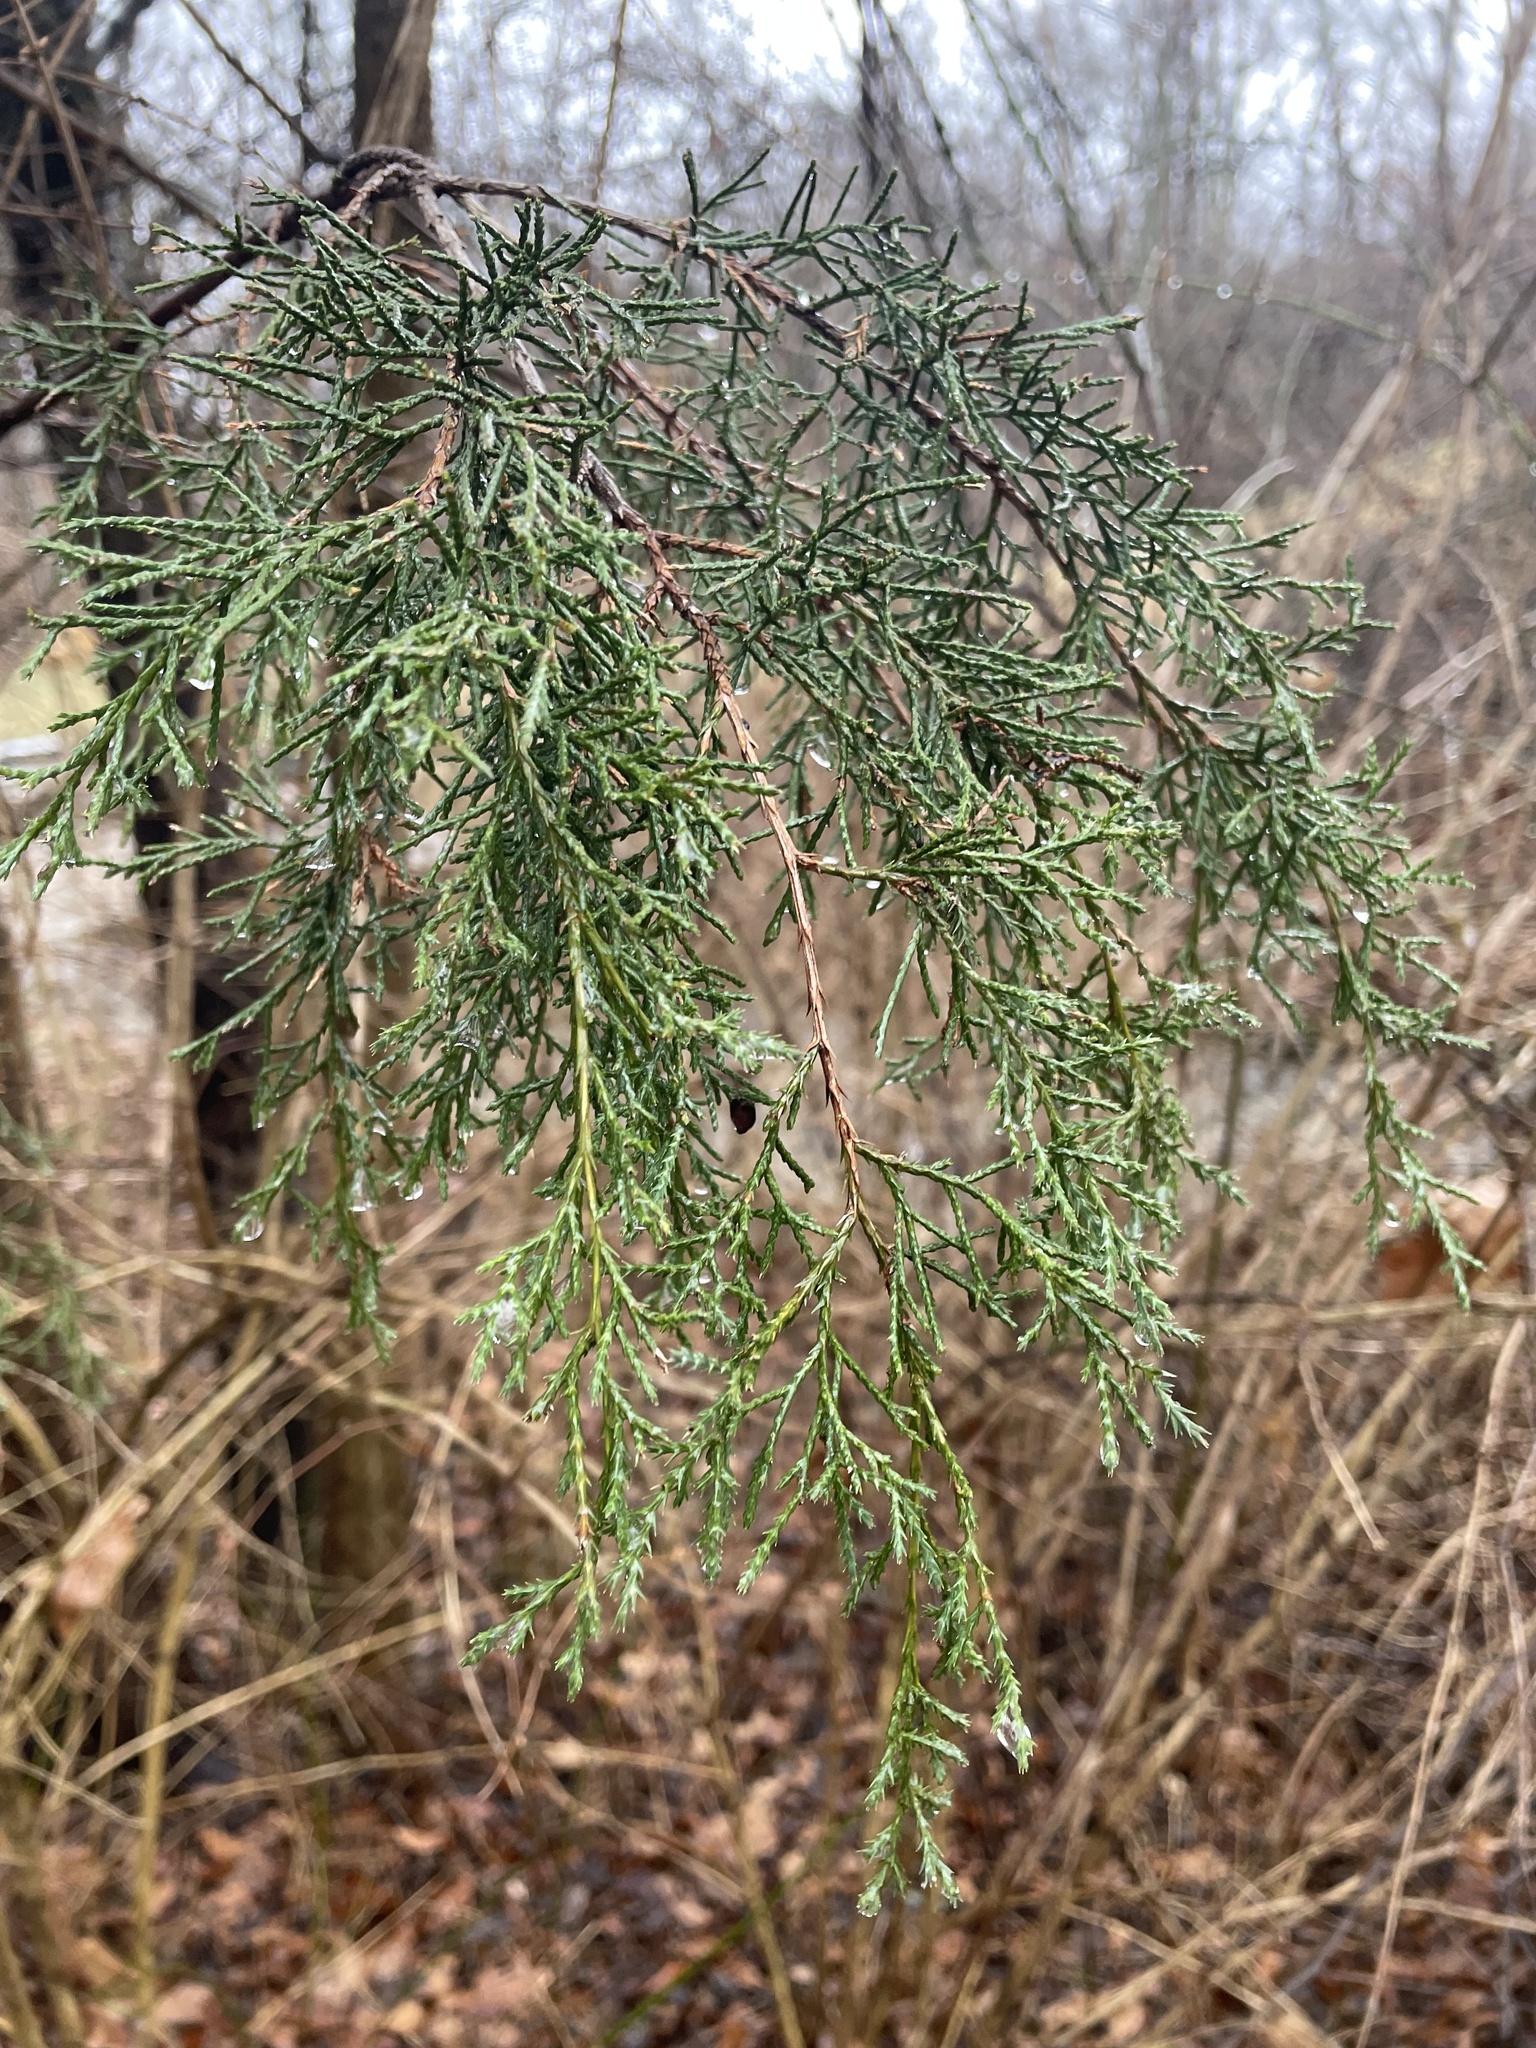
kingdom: Plantae
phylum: Tracheophyta
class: Pinopsida
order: Pinales
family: Cupressaceae
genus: Juniperus
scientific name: Juniperus virginiana
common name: Red juniper
